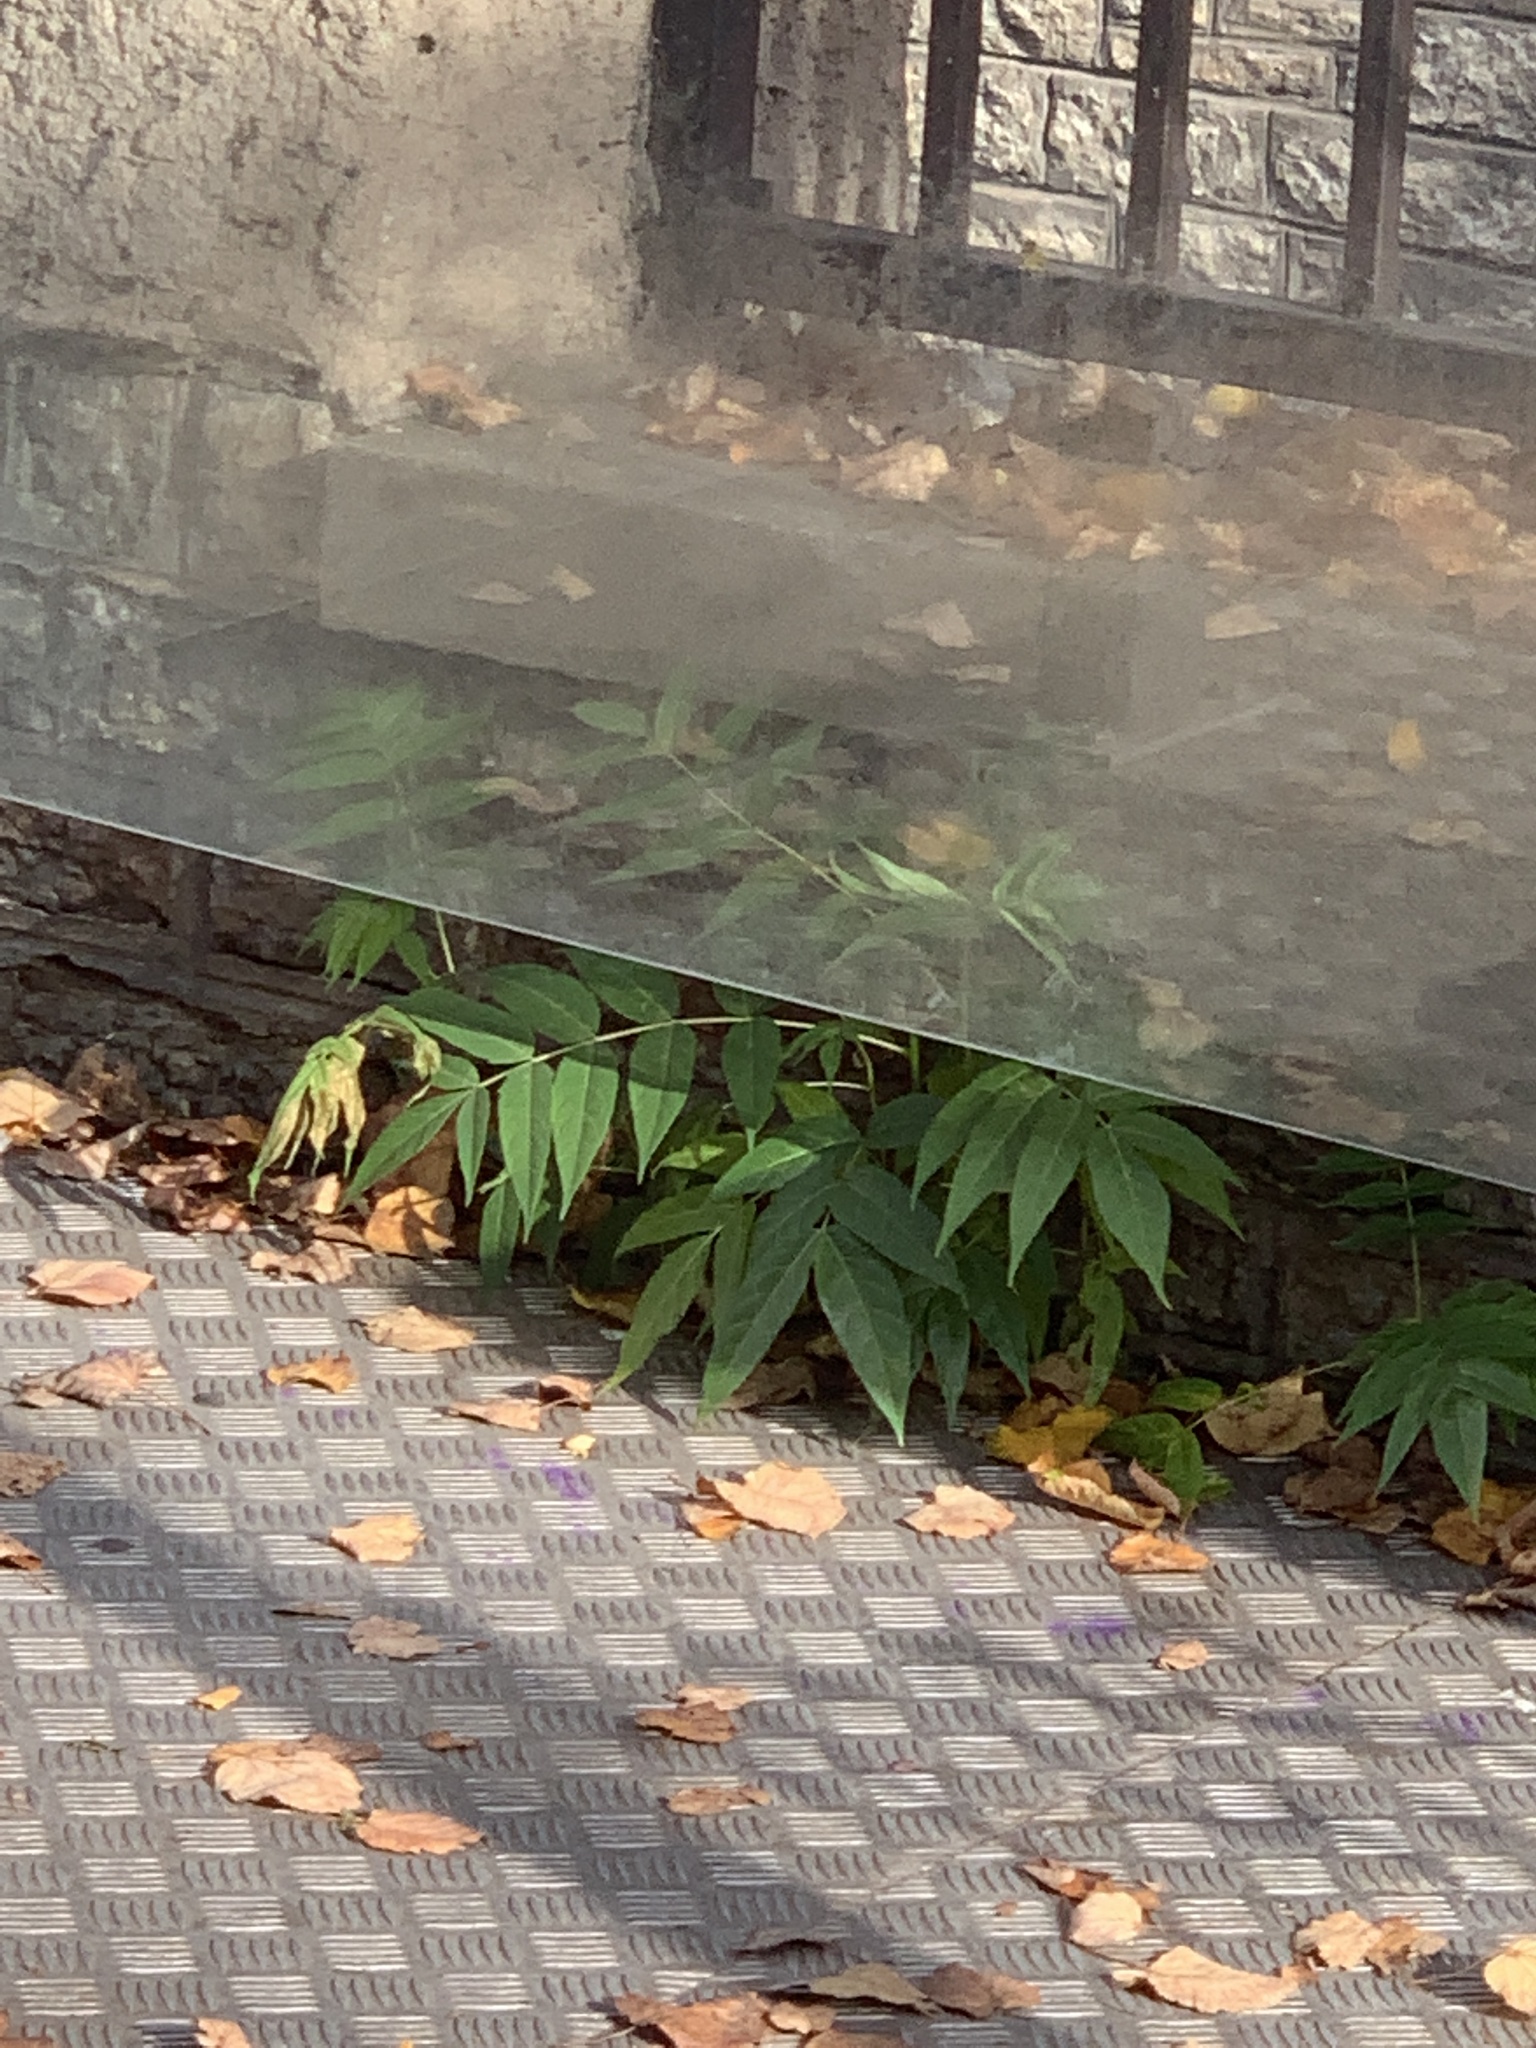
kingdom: Plantae
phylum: Tracheophyta
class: Magnoliopsida
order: Sapindales
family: Simaroubaceae
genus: Ailanthus
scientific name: Ailanthus altissima
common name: Tree-of-heaven
